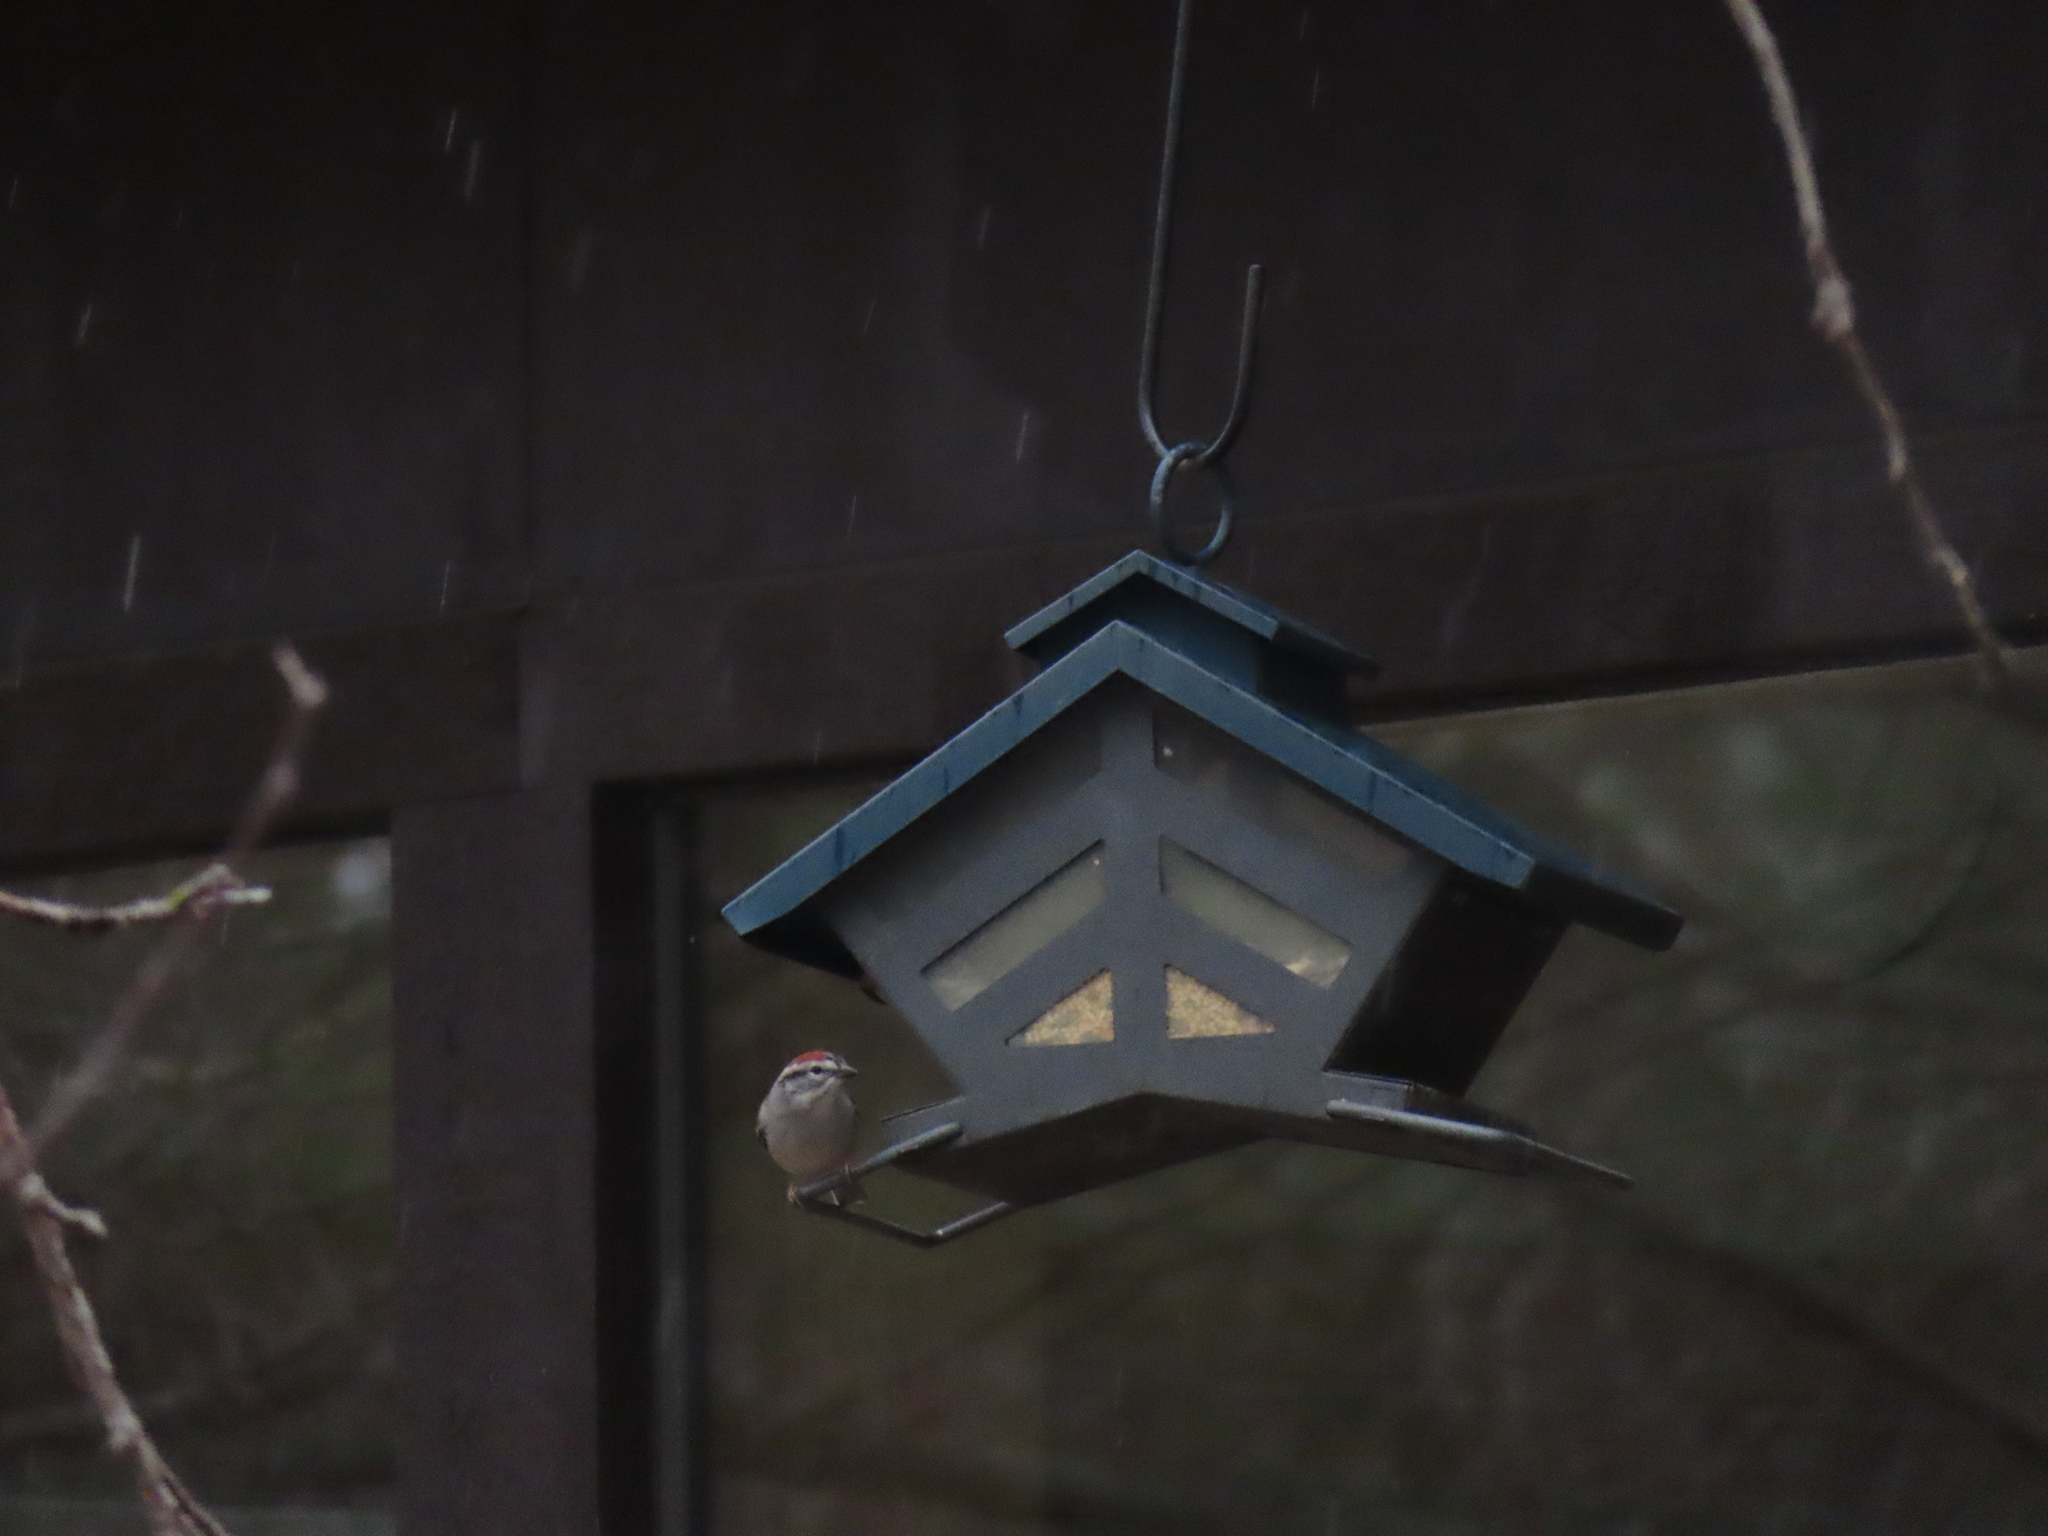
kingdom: Animalia
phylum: Chordata
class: Aves
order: Passeriformes
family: Passerellidae
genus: Spizella
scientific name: Spizella passerina
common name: Chipping sparrow
